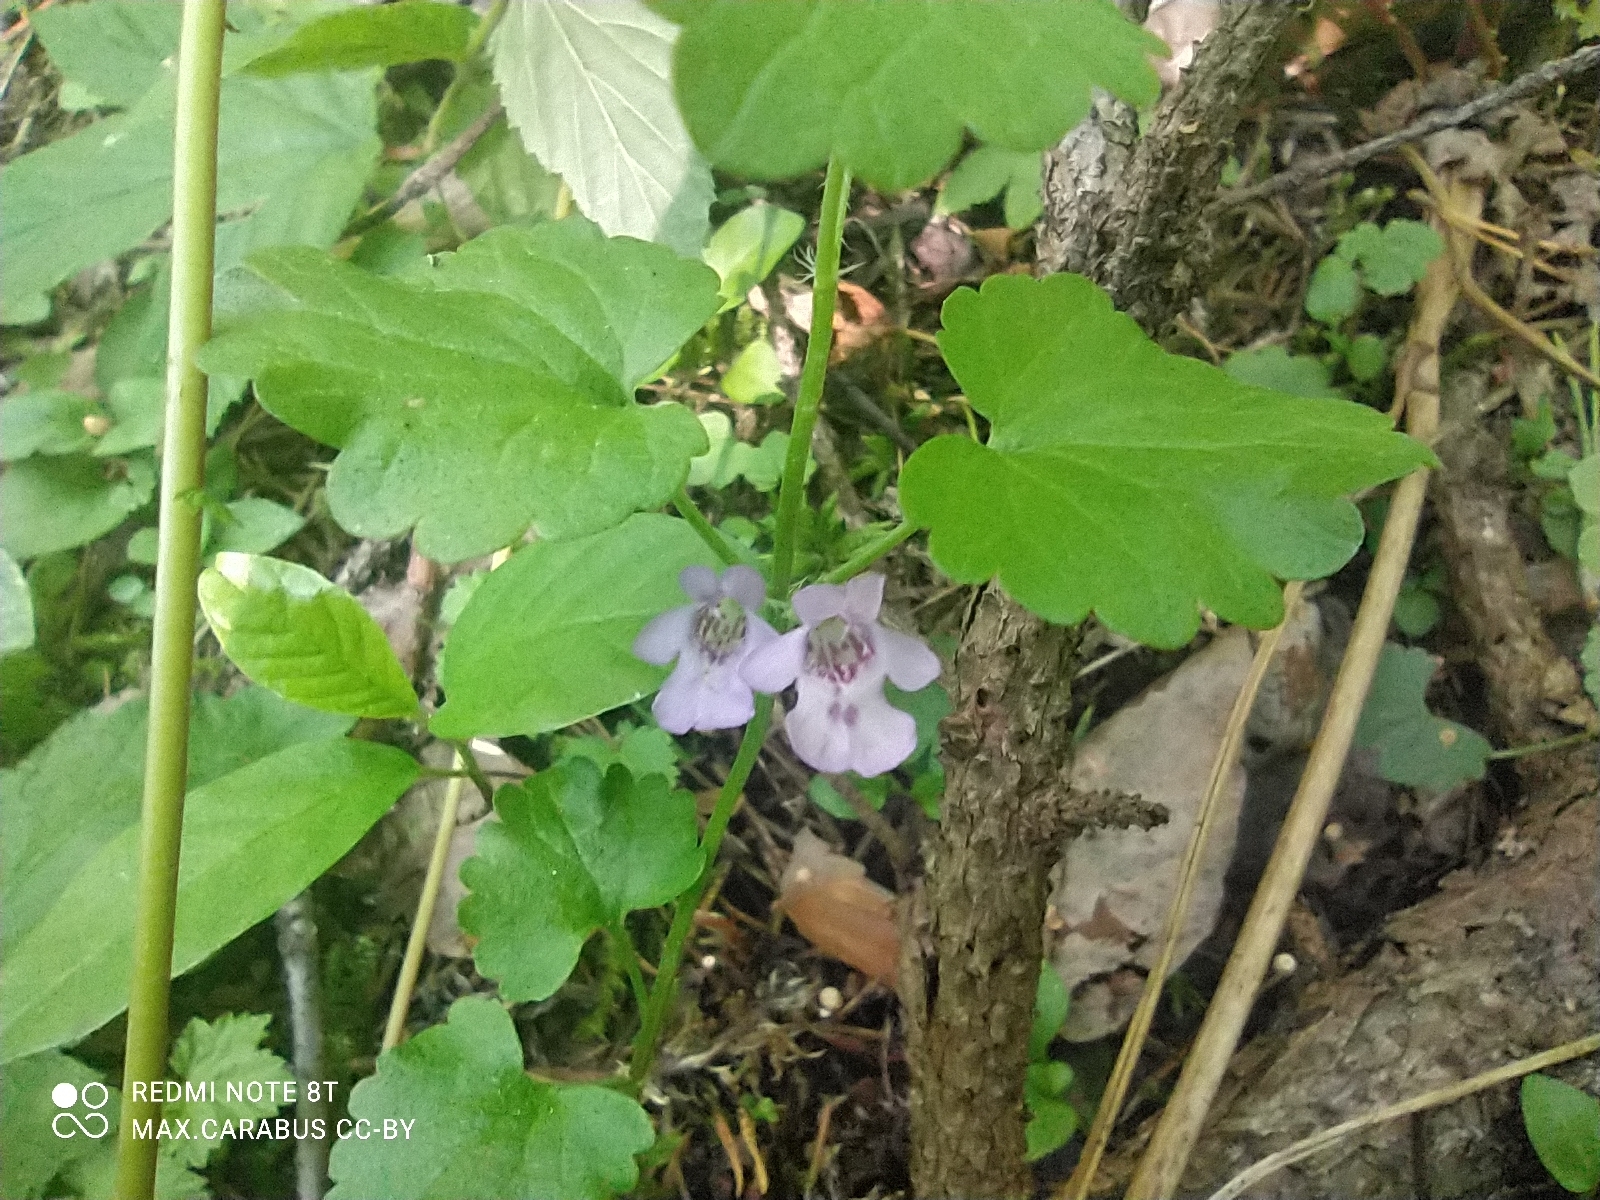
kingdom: Plantae
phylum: Tracheophyta
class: Magnoliopsida
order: Lamiales
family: Lamiaceae
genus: Glechoma
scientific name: Glechoma hederacea
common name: Ground ivy
